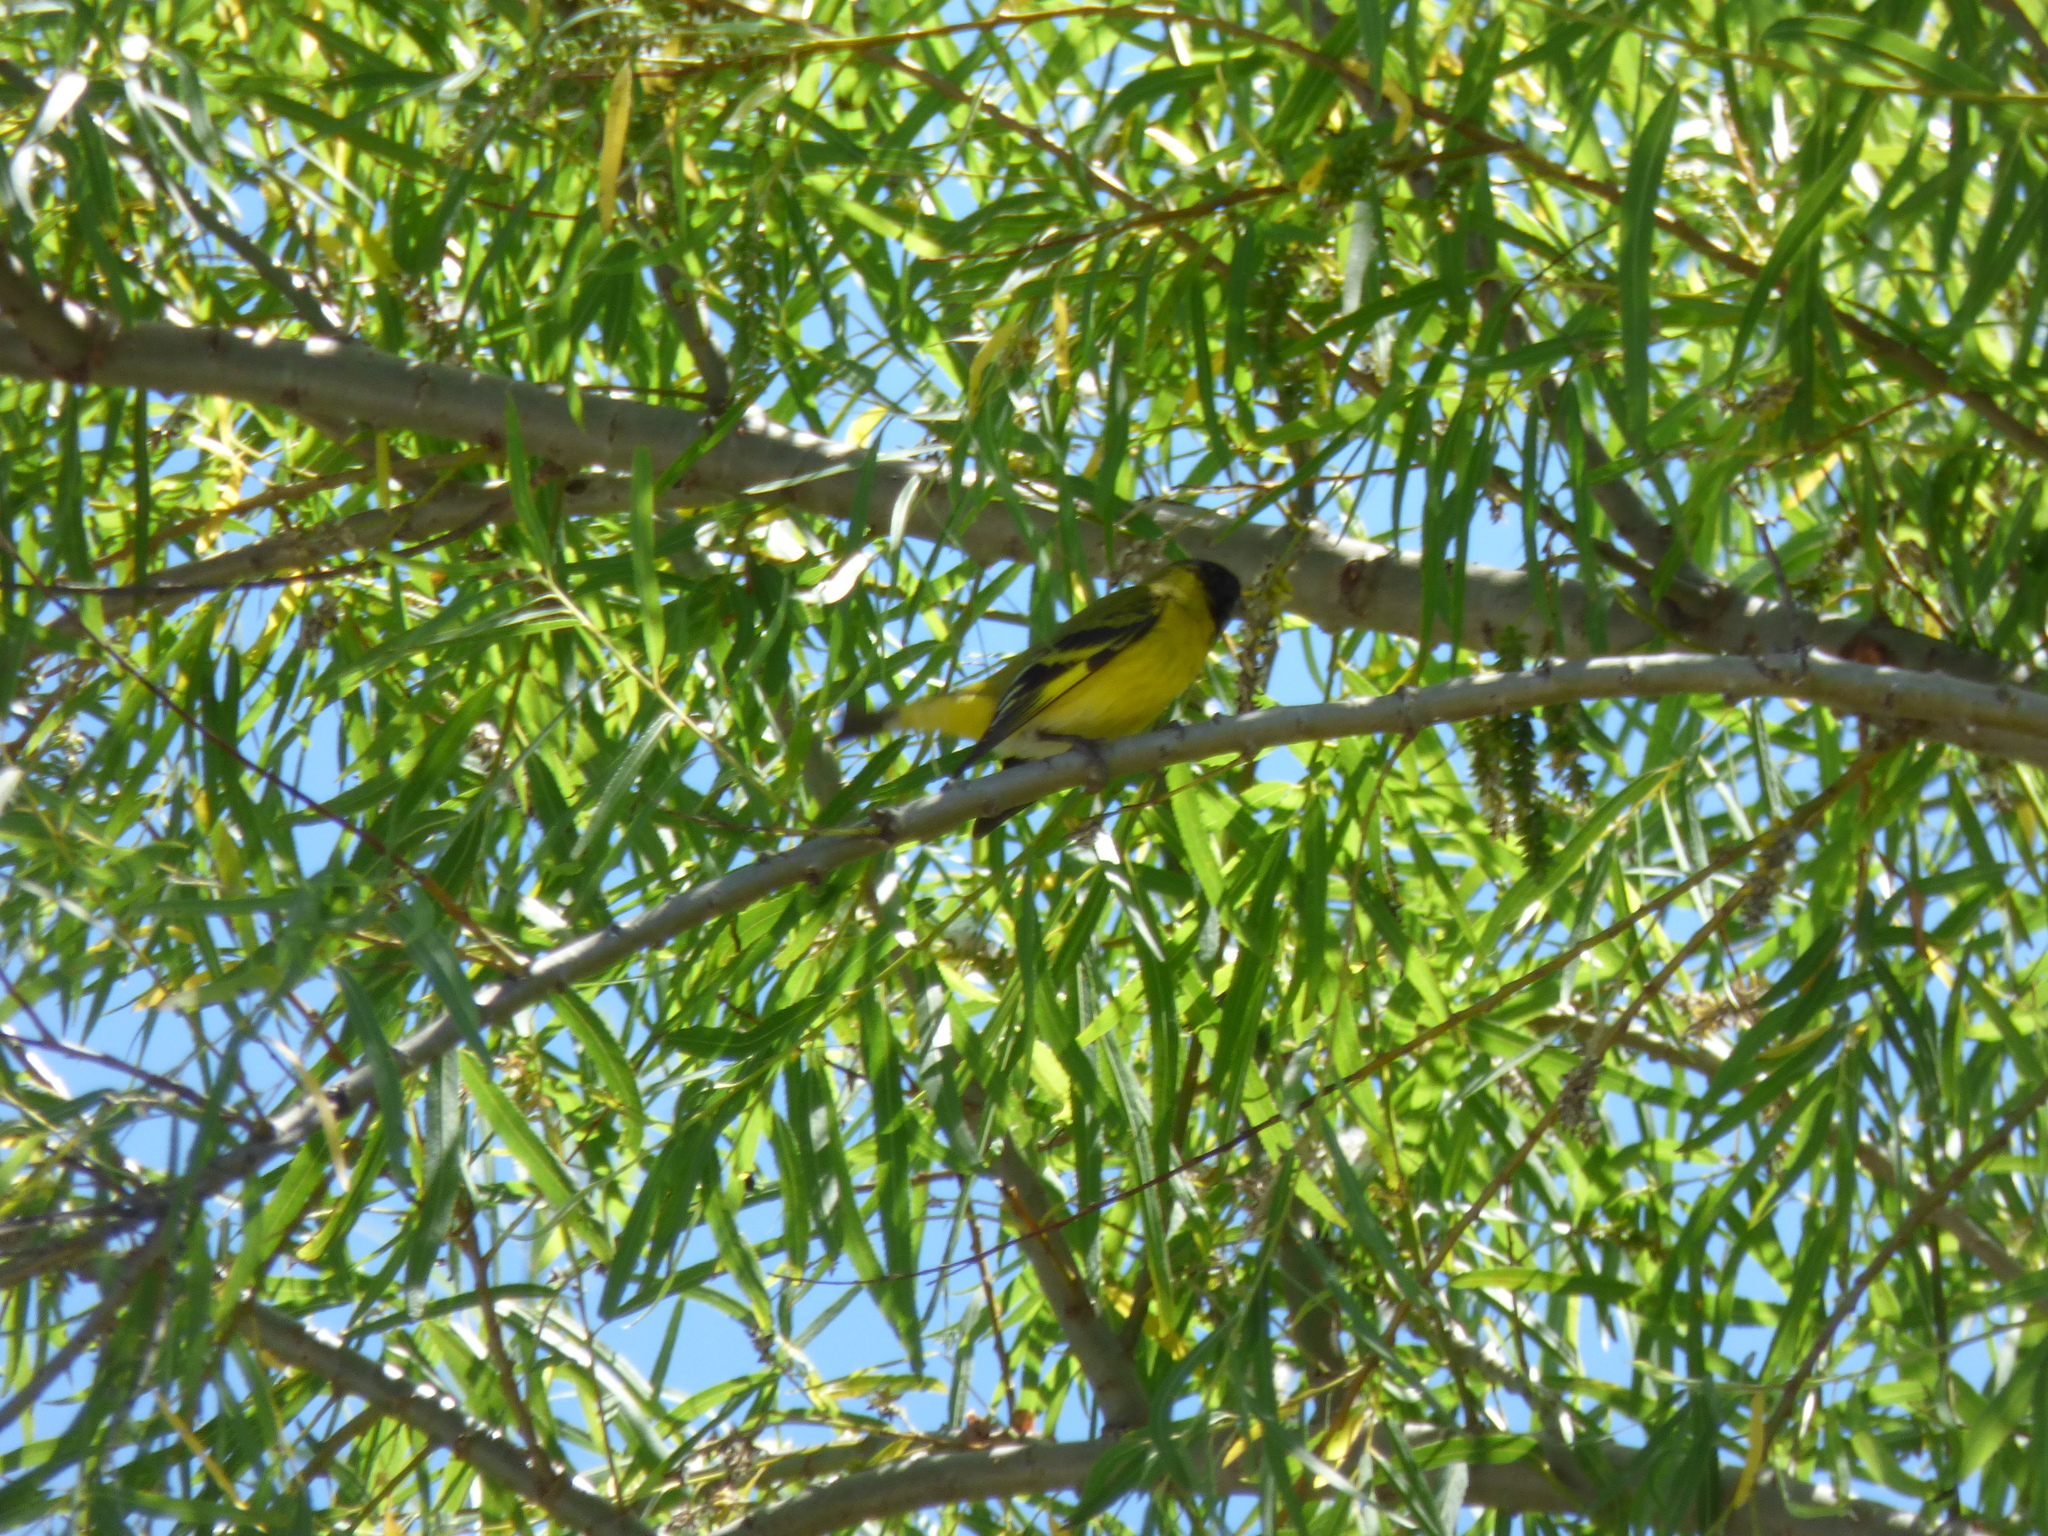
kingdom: Animalia
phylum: Chordata
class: Aves
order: Passeriformes
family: Fringillidae
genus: Spinus
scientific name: Spinus magellanicus
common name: Hooded siskin
